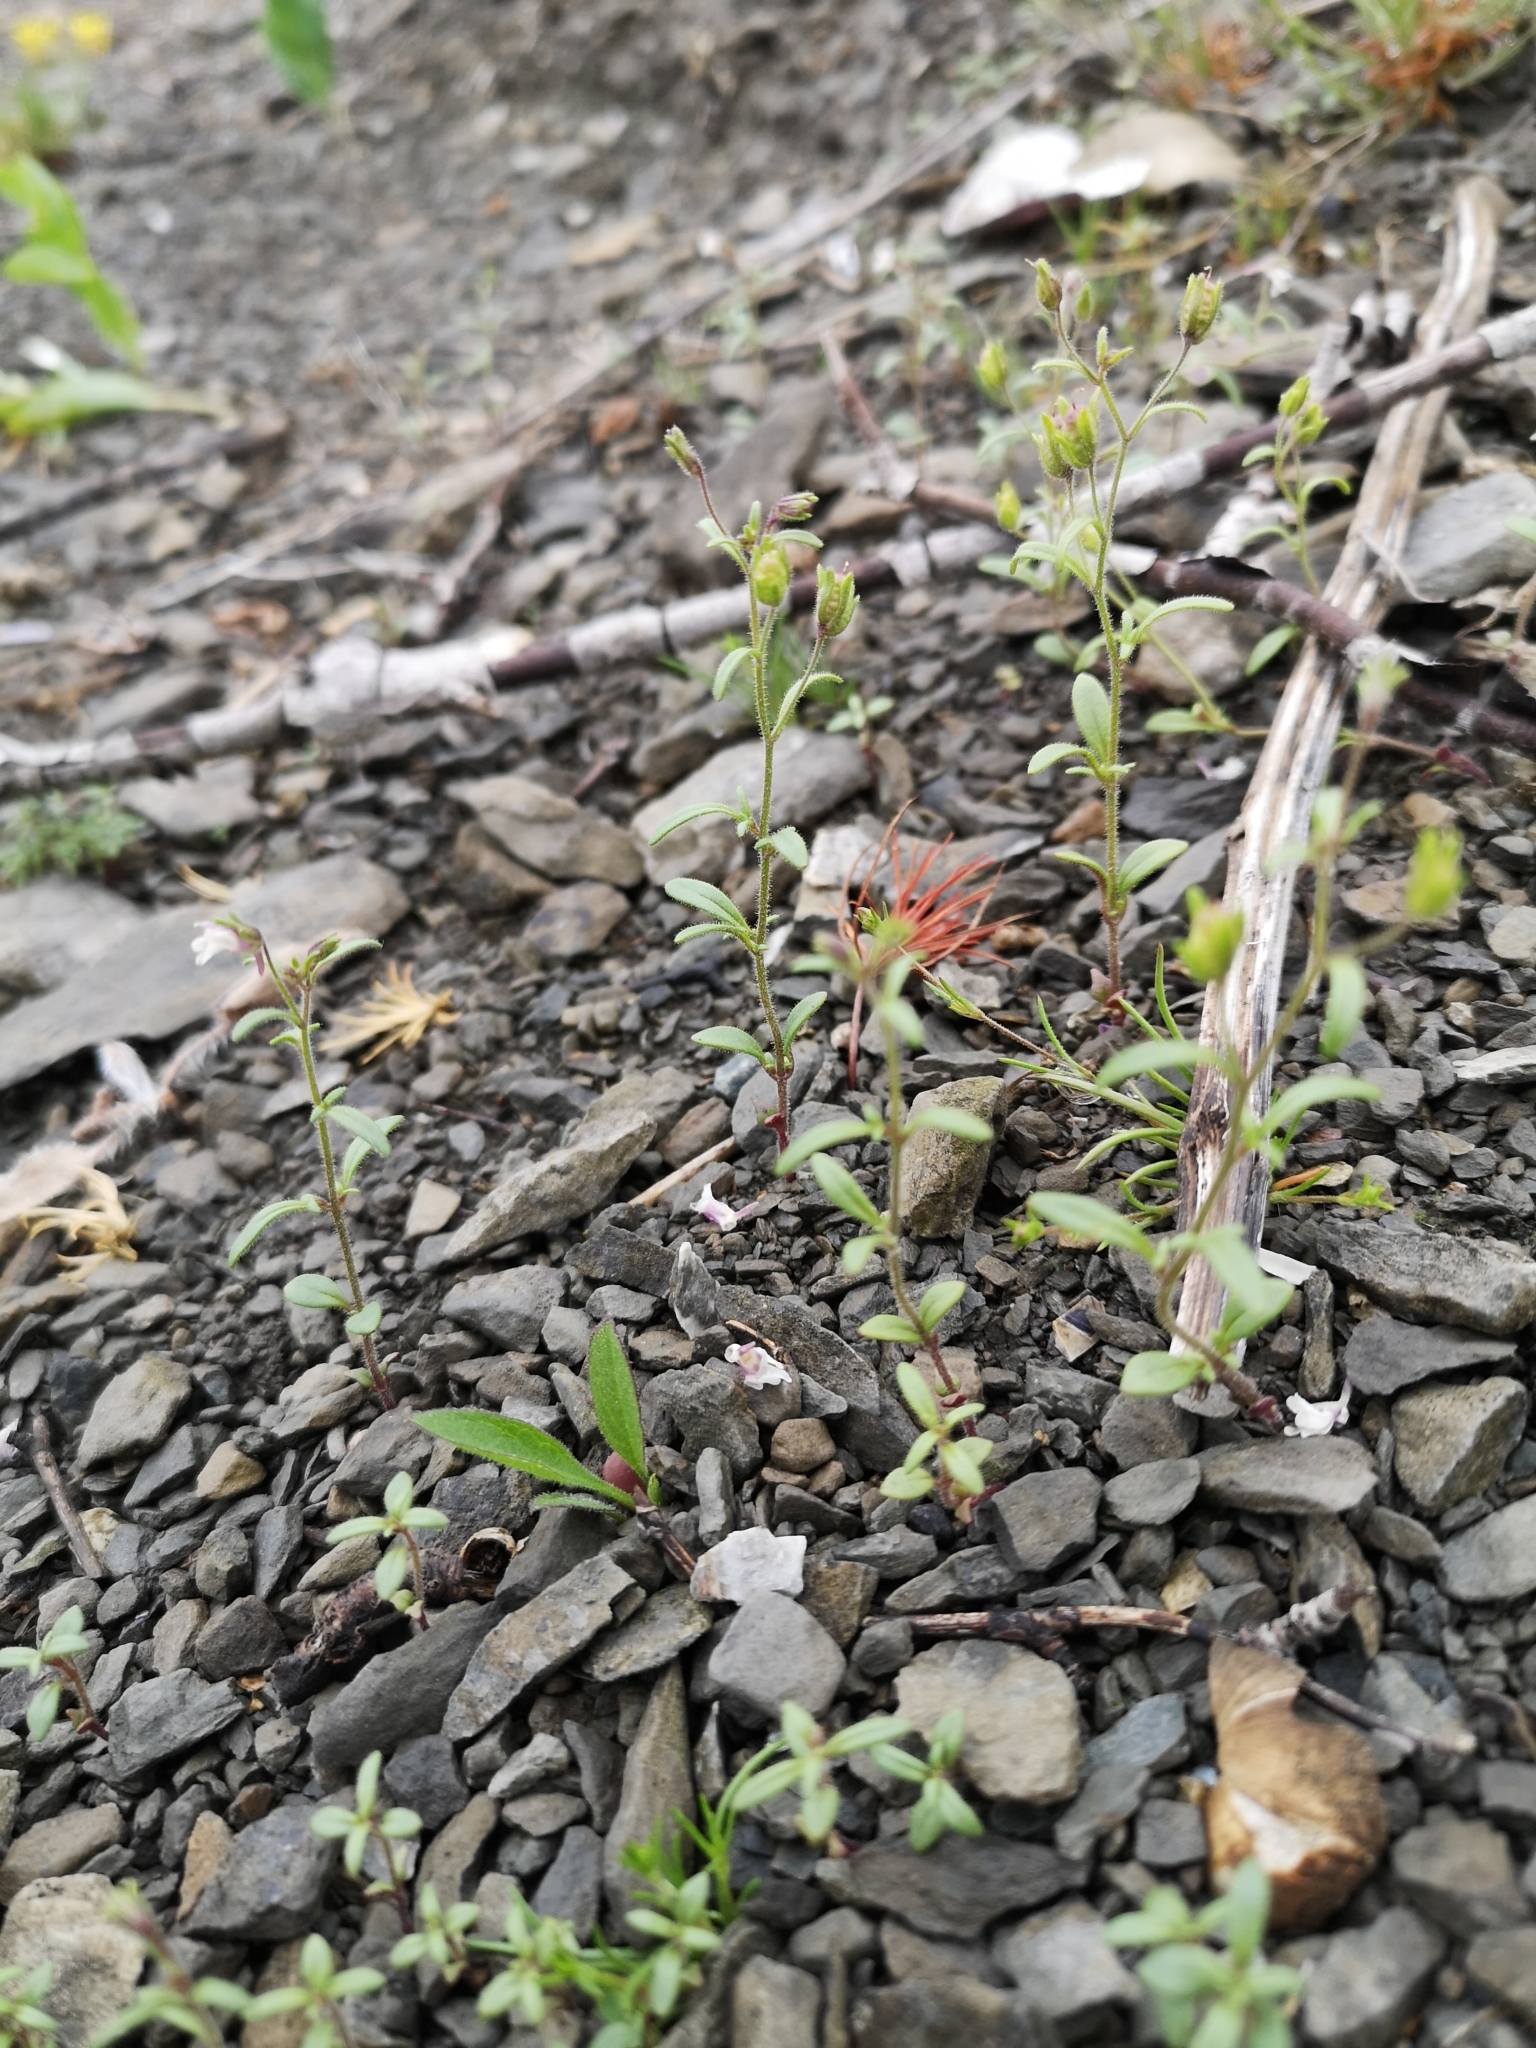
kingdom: Plantae
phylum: Tracheophyta
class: Magnoliopsida
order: Lamiales
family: Plantaginaceae
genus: Chaenorhinum
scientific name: Chaenorhinum minus
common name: Dwarf snapdragon
